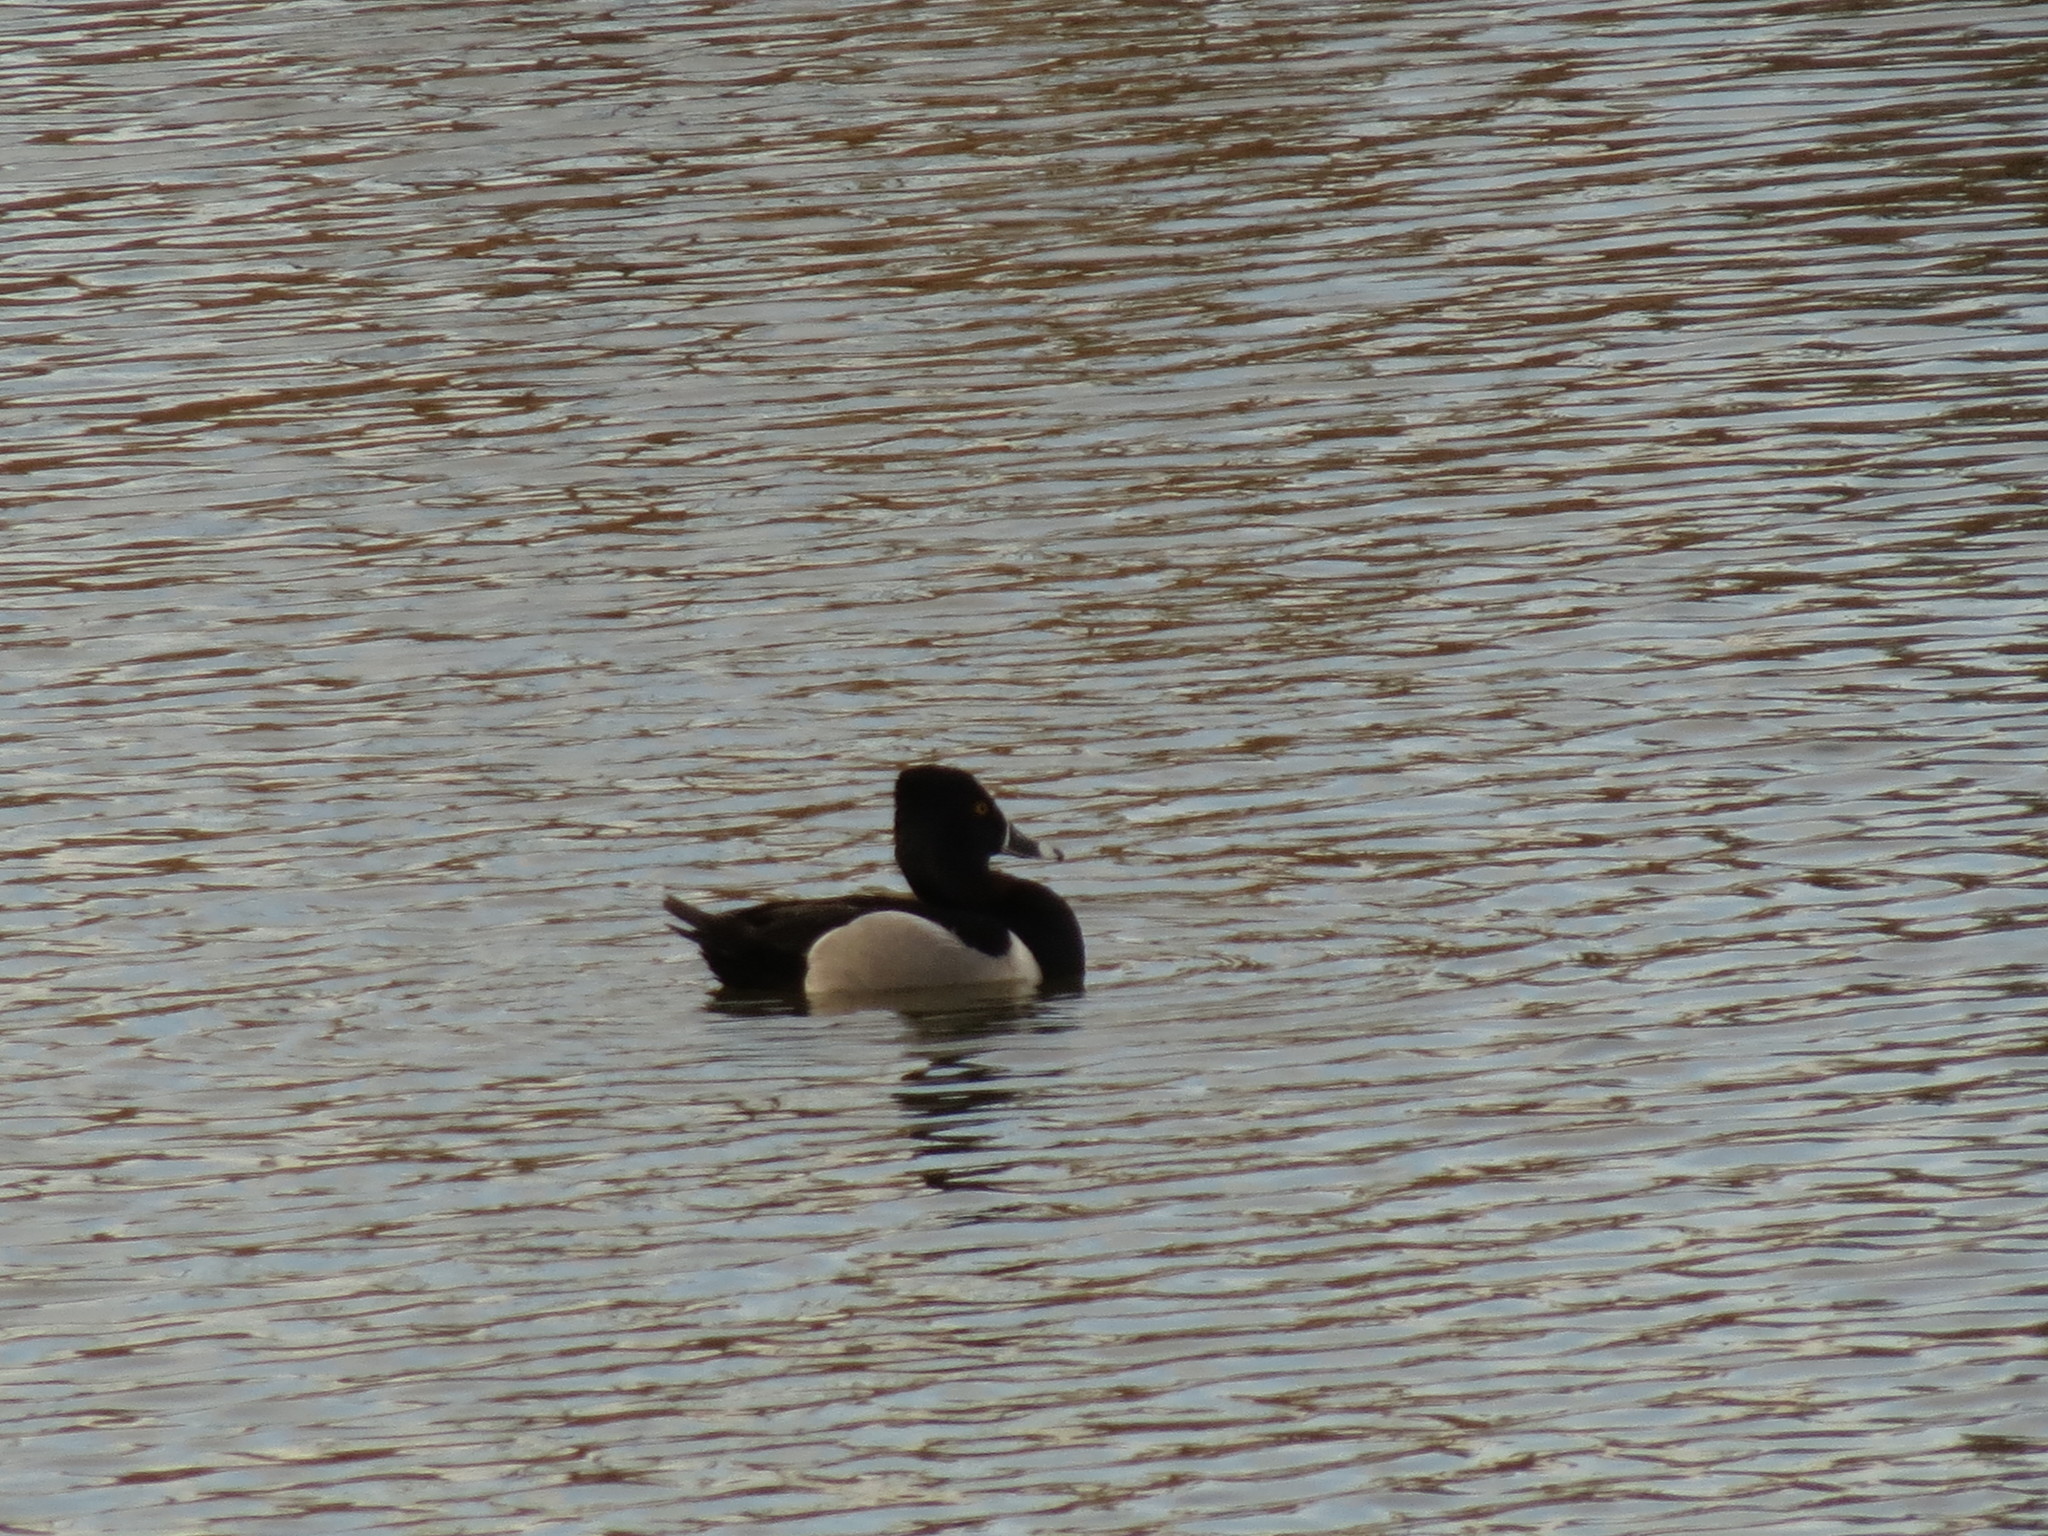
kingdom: Animalia
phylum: Chordata
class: Aves
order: Anseriformes
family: Anatidae
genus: Aythya
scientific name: Aythya collaris
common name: Ring-necked duck
